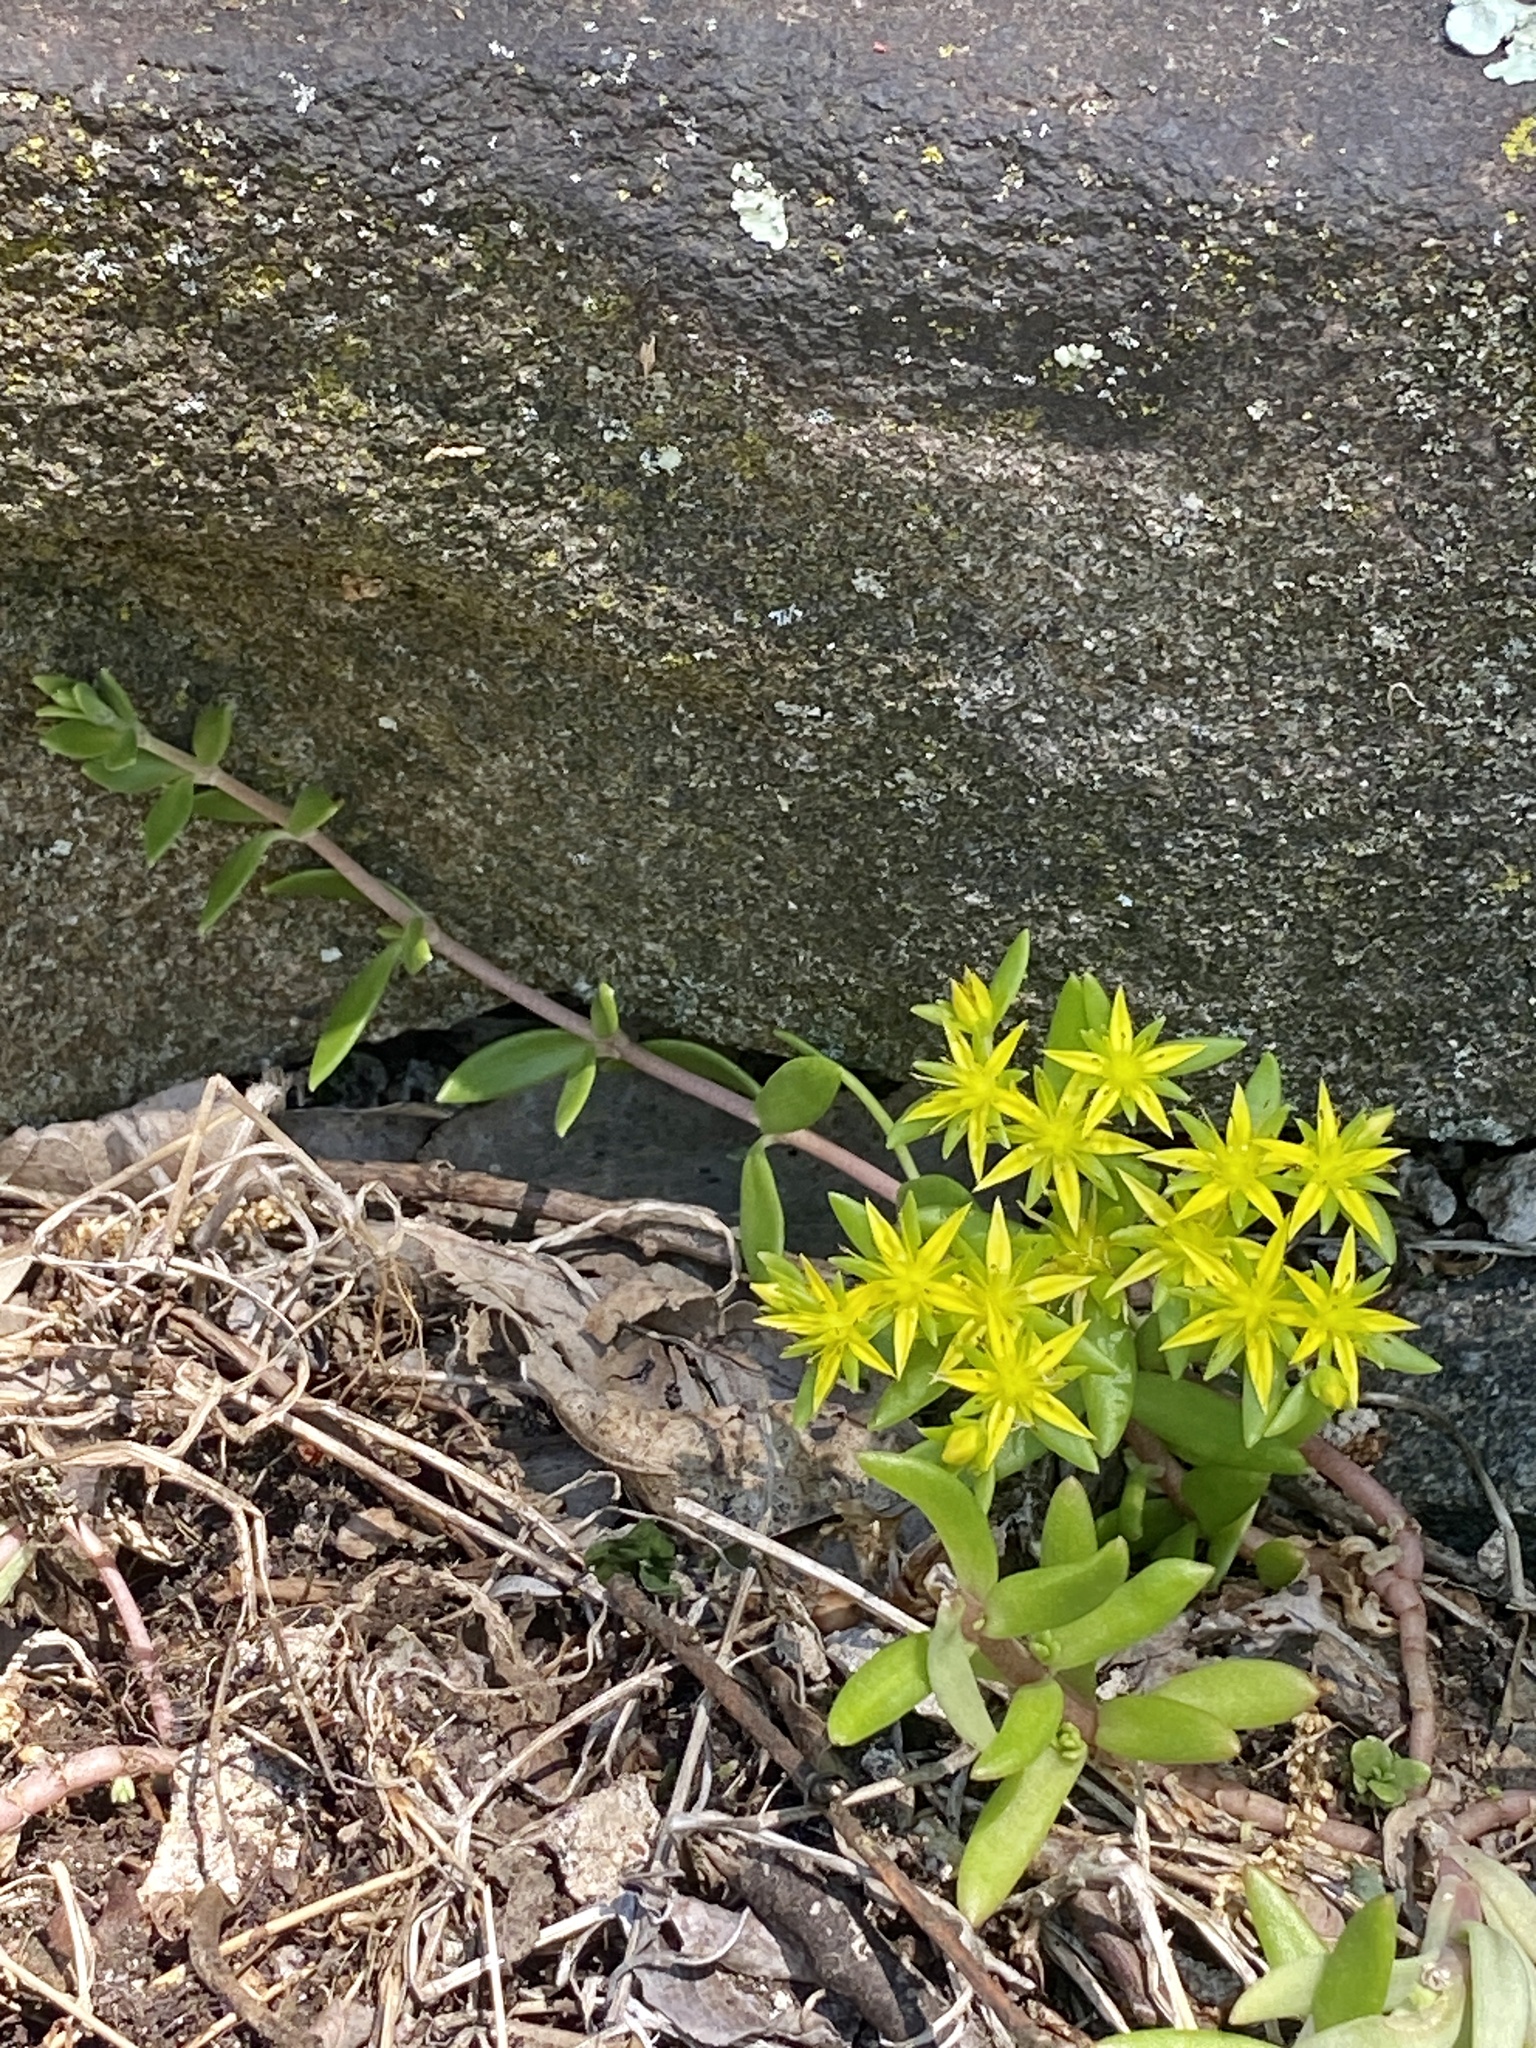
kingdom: Plantae
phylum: Tracheophyta
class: Magnoliopsida
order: Saxifragales
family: Crassulaceae
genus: Sedum
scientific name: Sedum sarmentosum
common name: Stringy stonecrop
